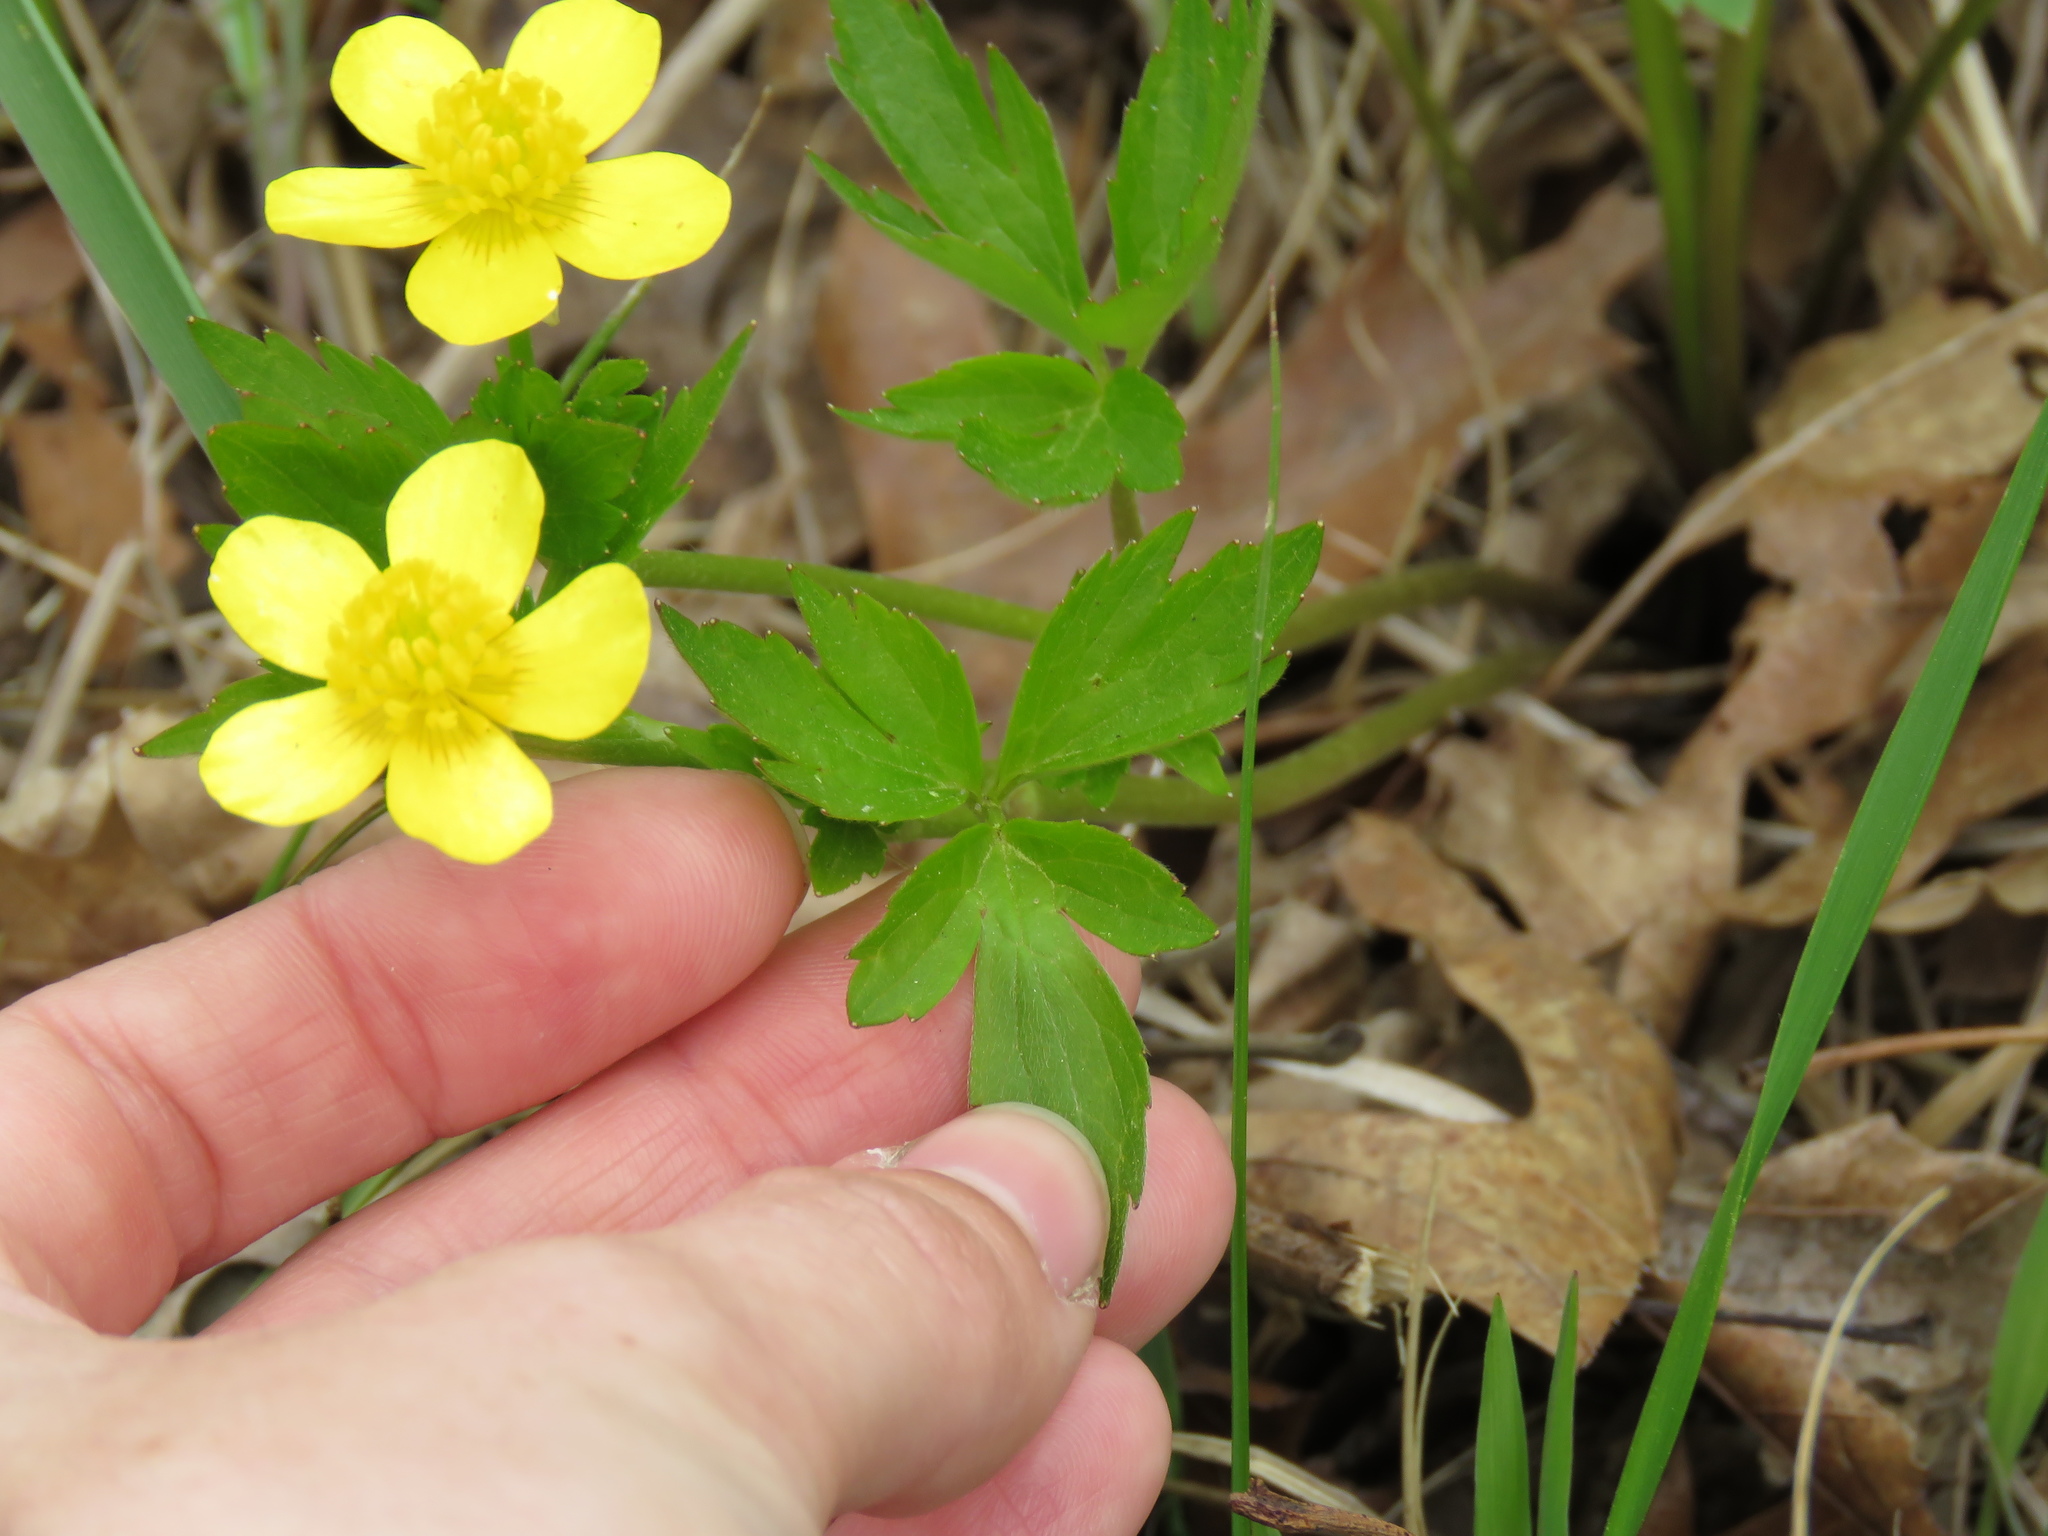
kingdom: Plantae
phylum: Tracheophyta
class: Magnoliopsida
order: Ranunculales
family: Ranunculaceae
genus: Ranunculus
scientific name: Ranunculus hispidus
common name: Bristly buttercup
